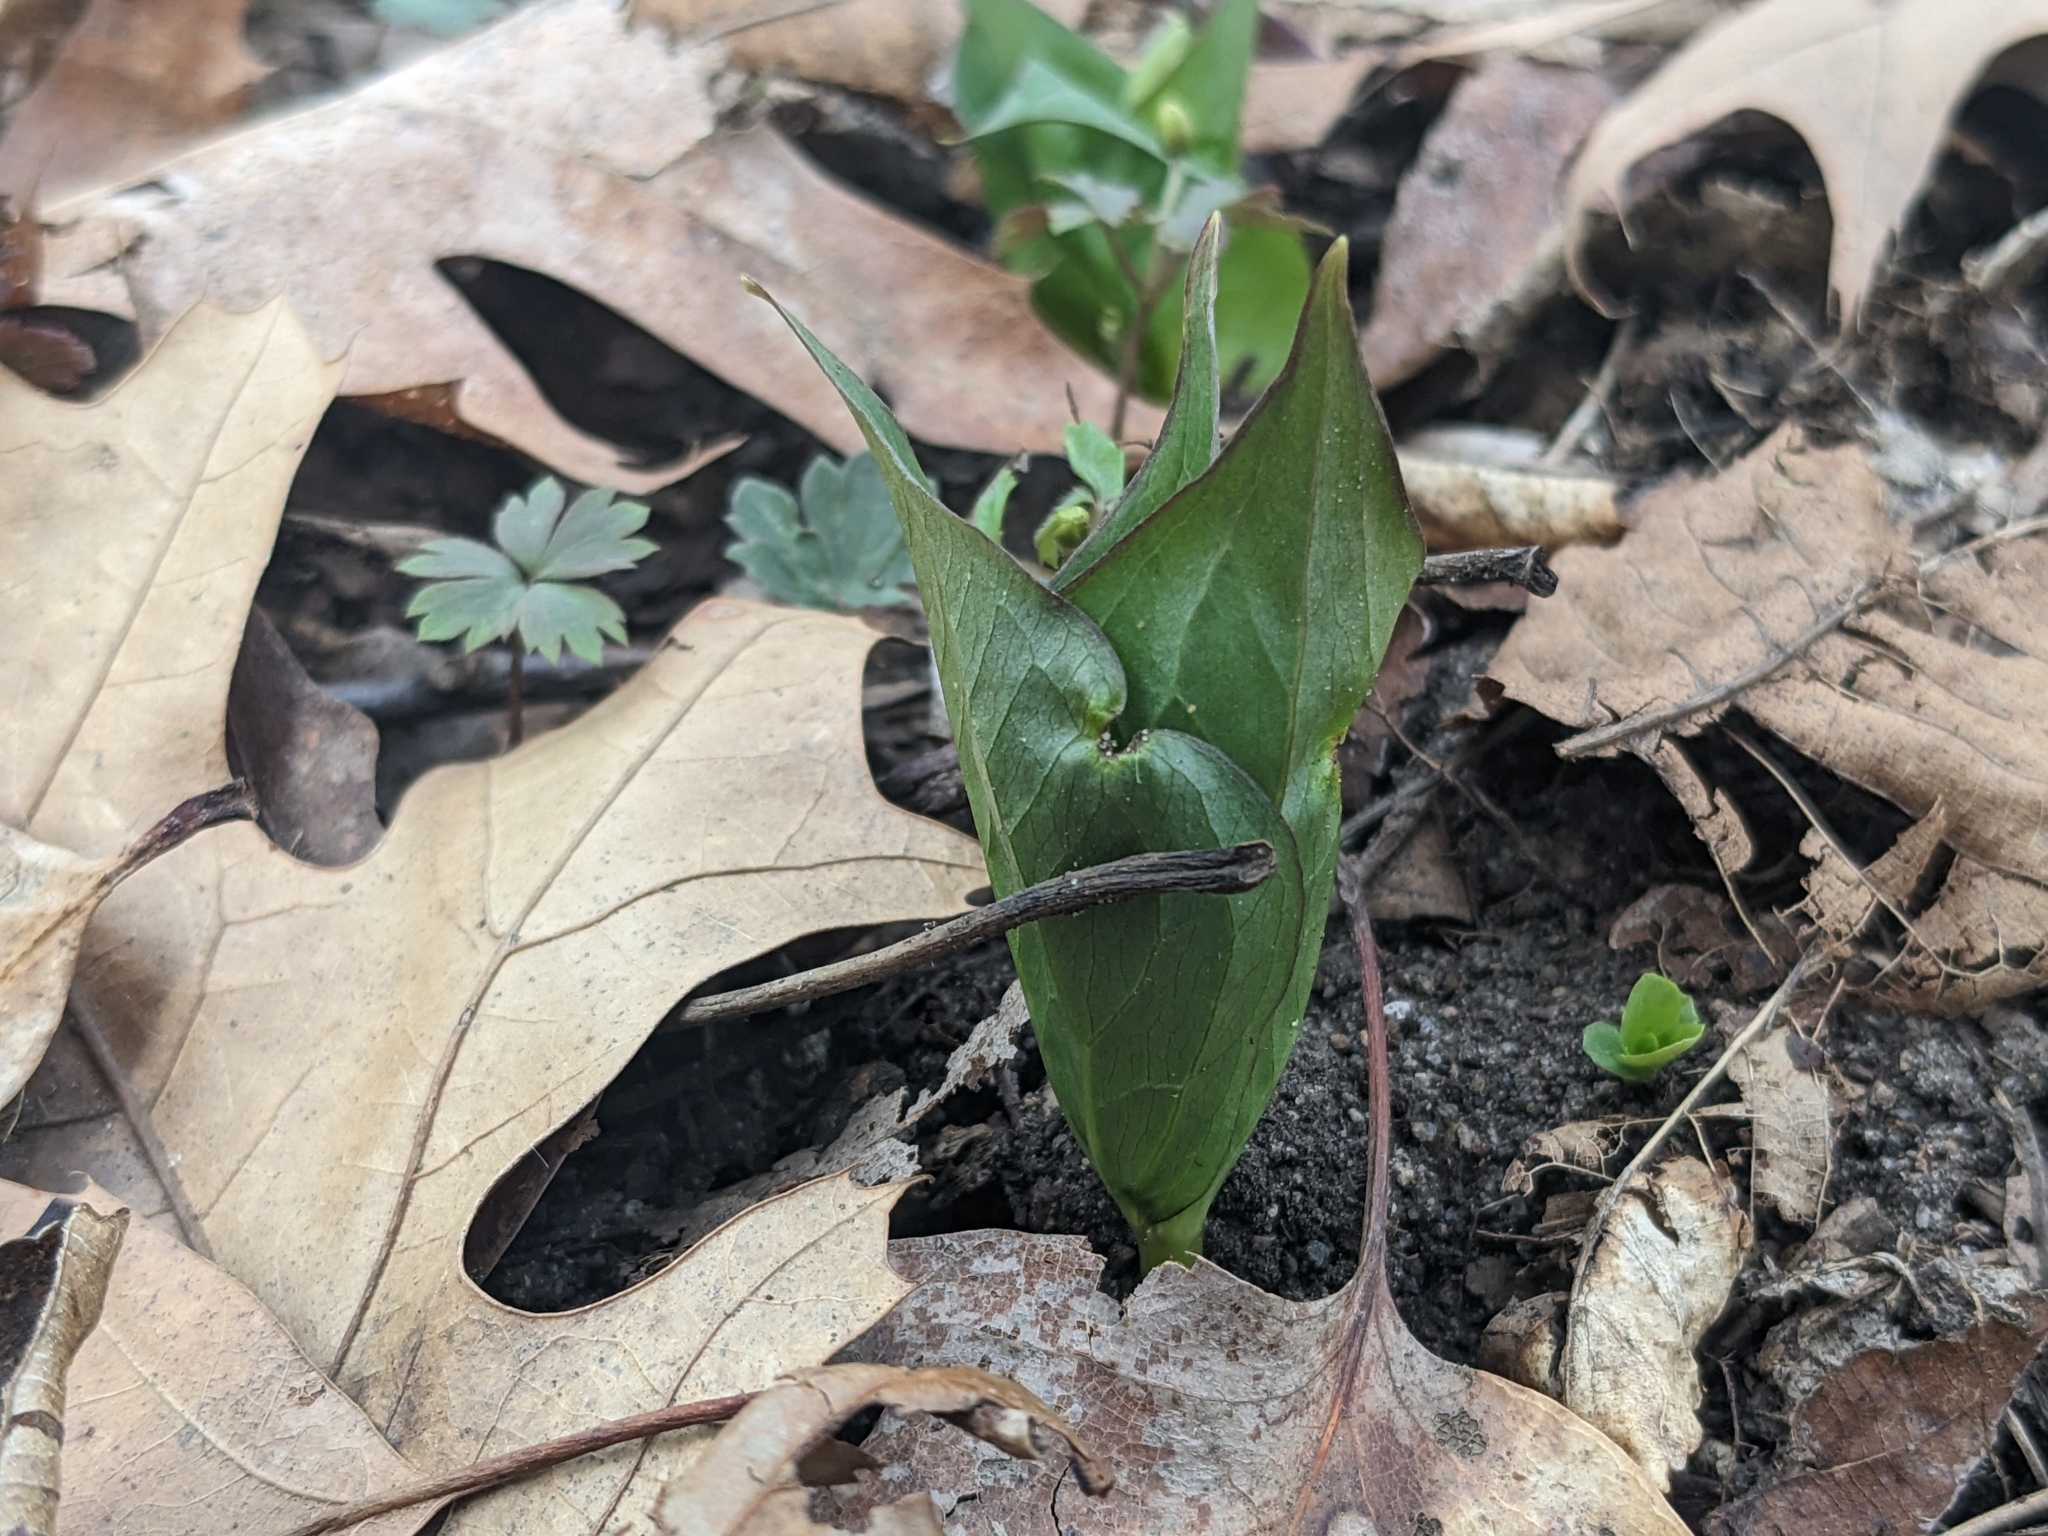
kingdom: Plantae
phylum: Tracheophyta
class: Liliopsida
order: Liliales
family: Melanthiaceae
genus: Trillium
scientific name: Trillium grandiflorum
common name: Great white trillium
